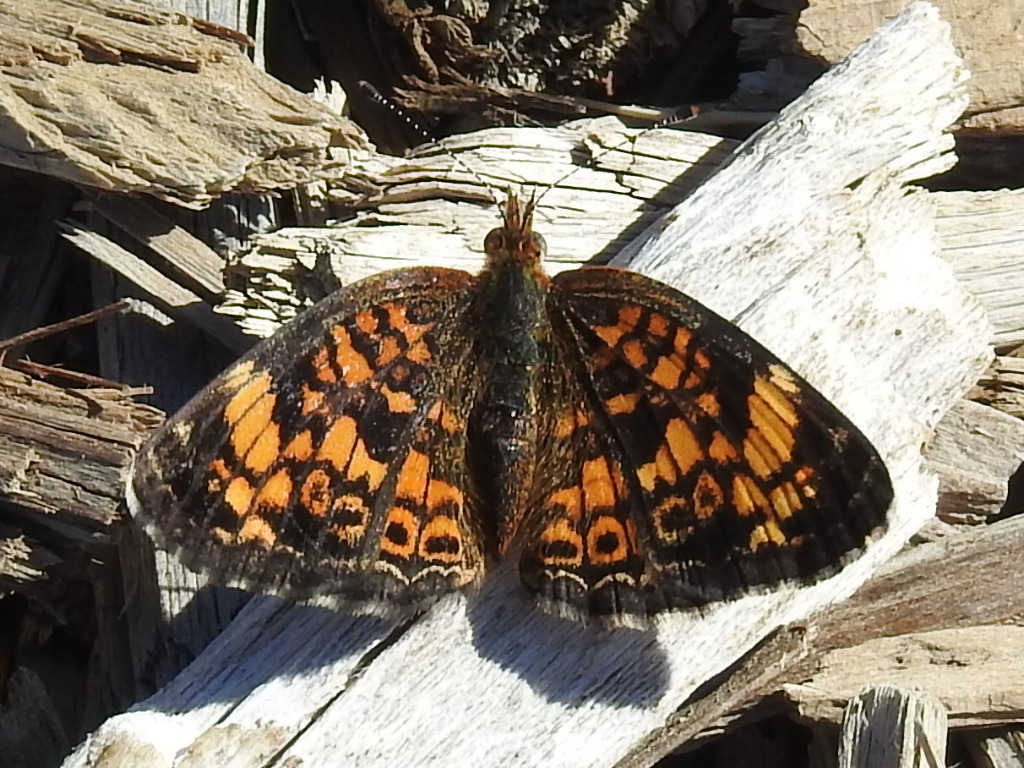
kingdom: Animalia
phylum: Arthropoda
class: Insecta
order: Lepidoptera
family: Nymphalidae
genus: Phyciodes
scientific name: Phyciodes tharos
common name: Pearl crescent
